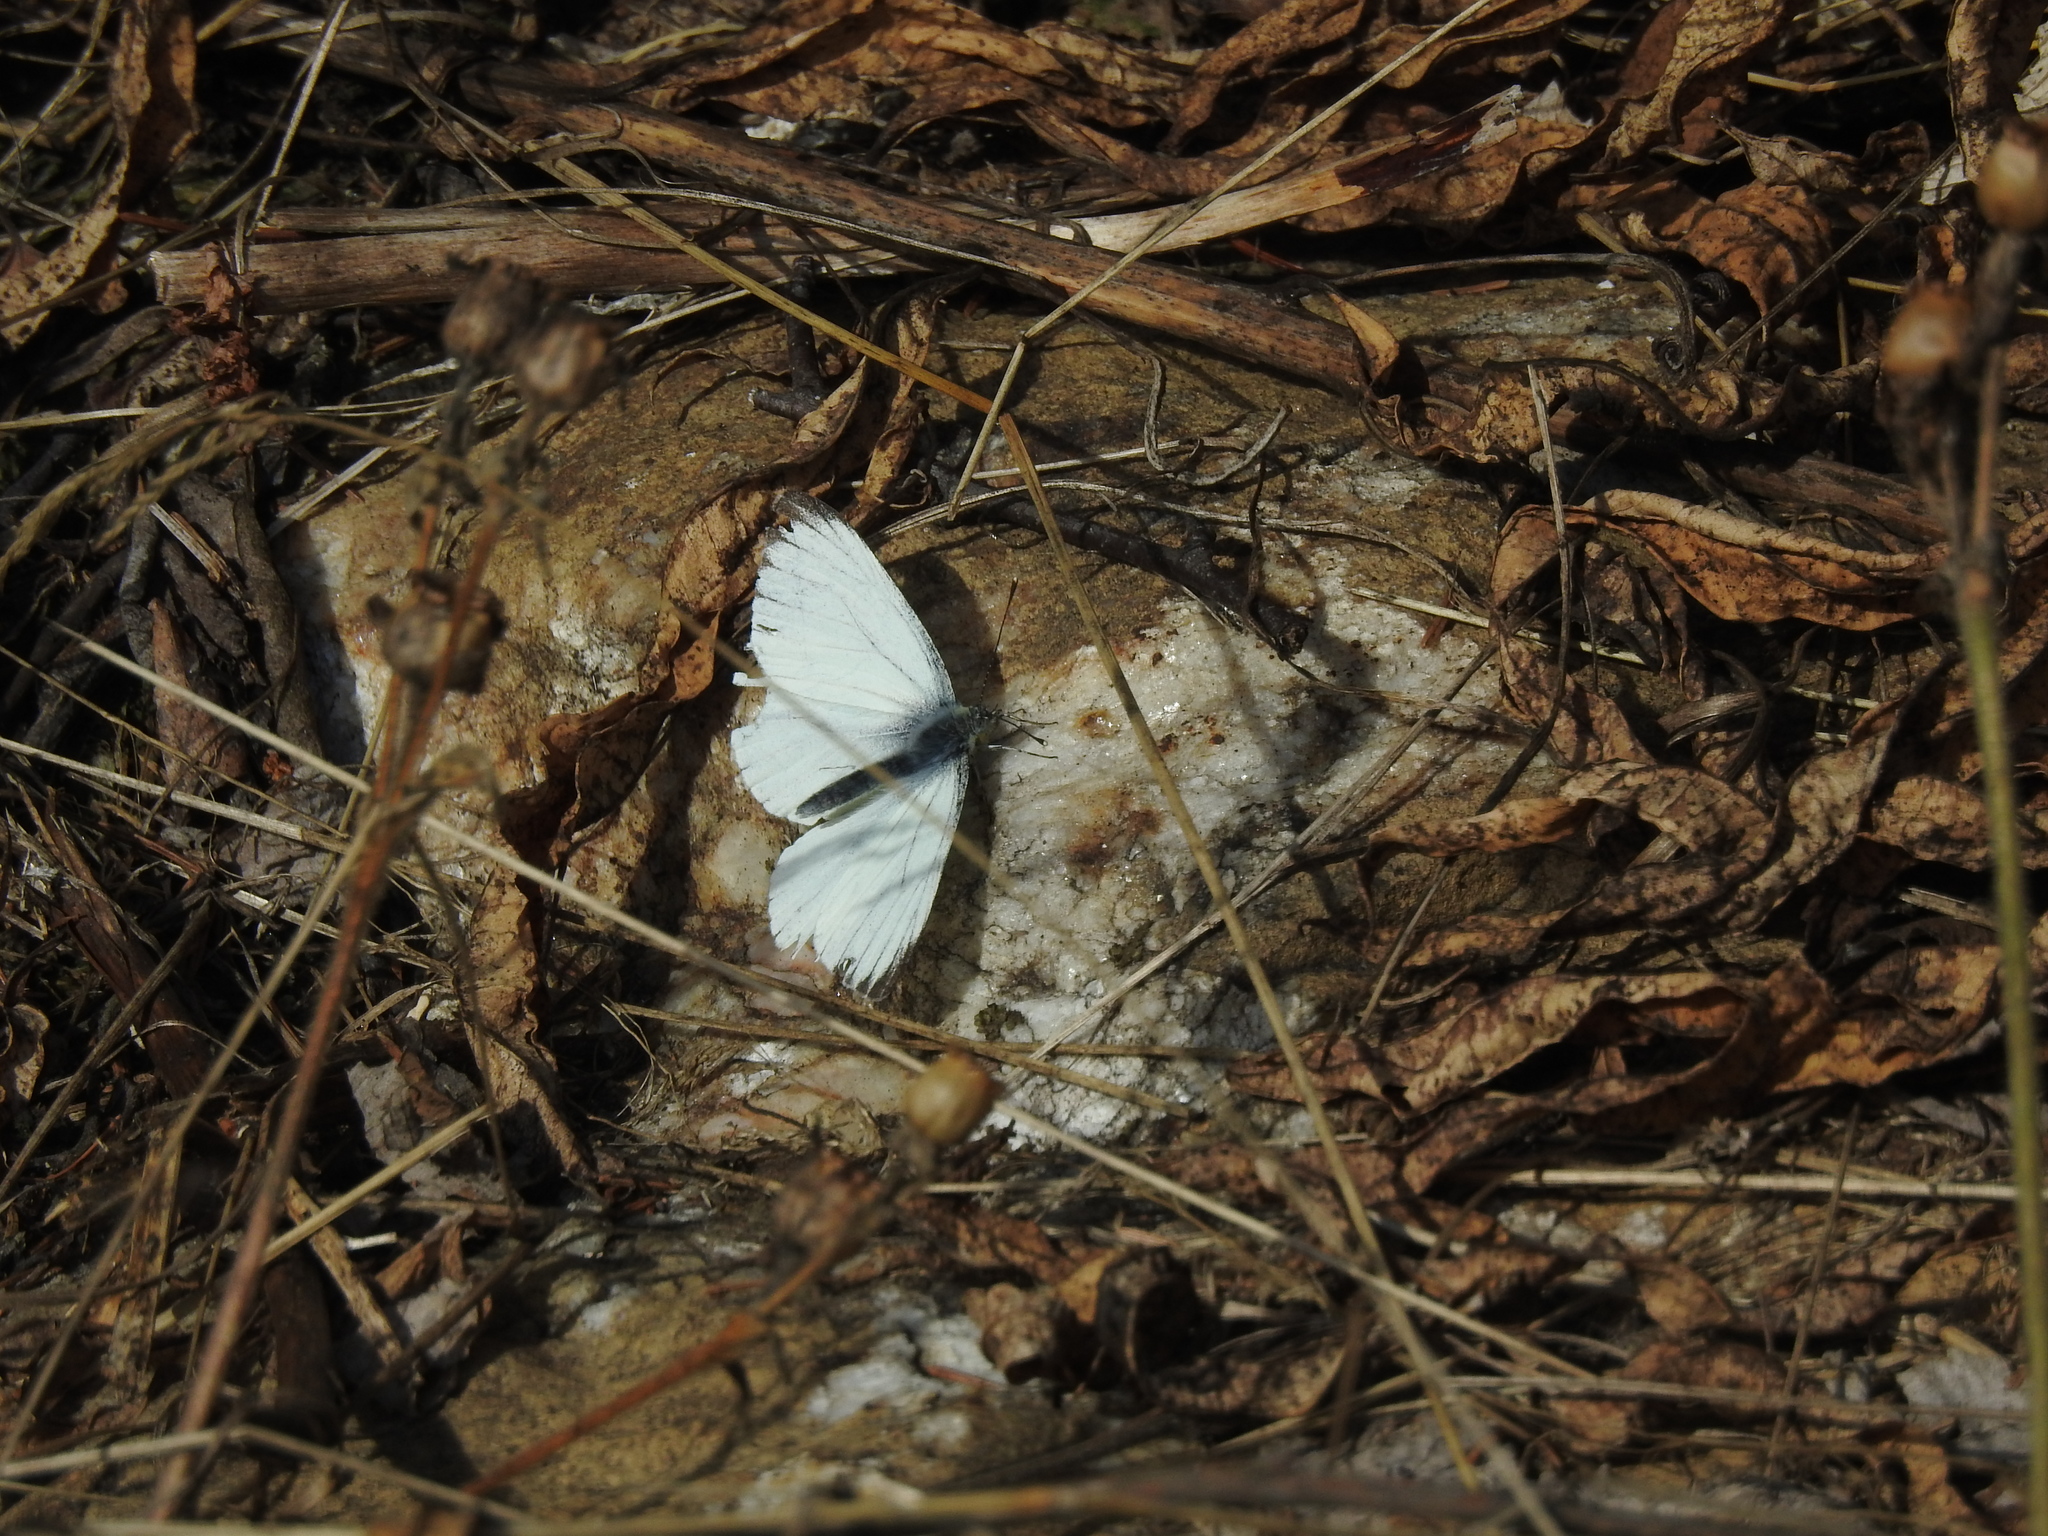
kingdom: Animalia
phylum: Arthropoda
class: Insecta
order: Lepidoptera
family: Pieridae
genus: Pieris
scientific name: Pieris napi
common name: Green-veined white
